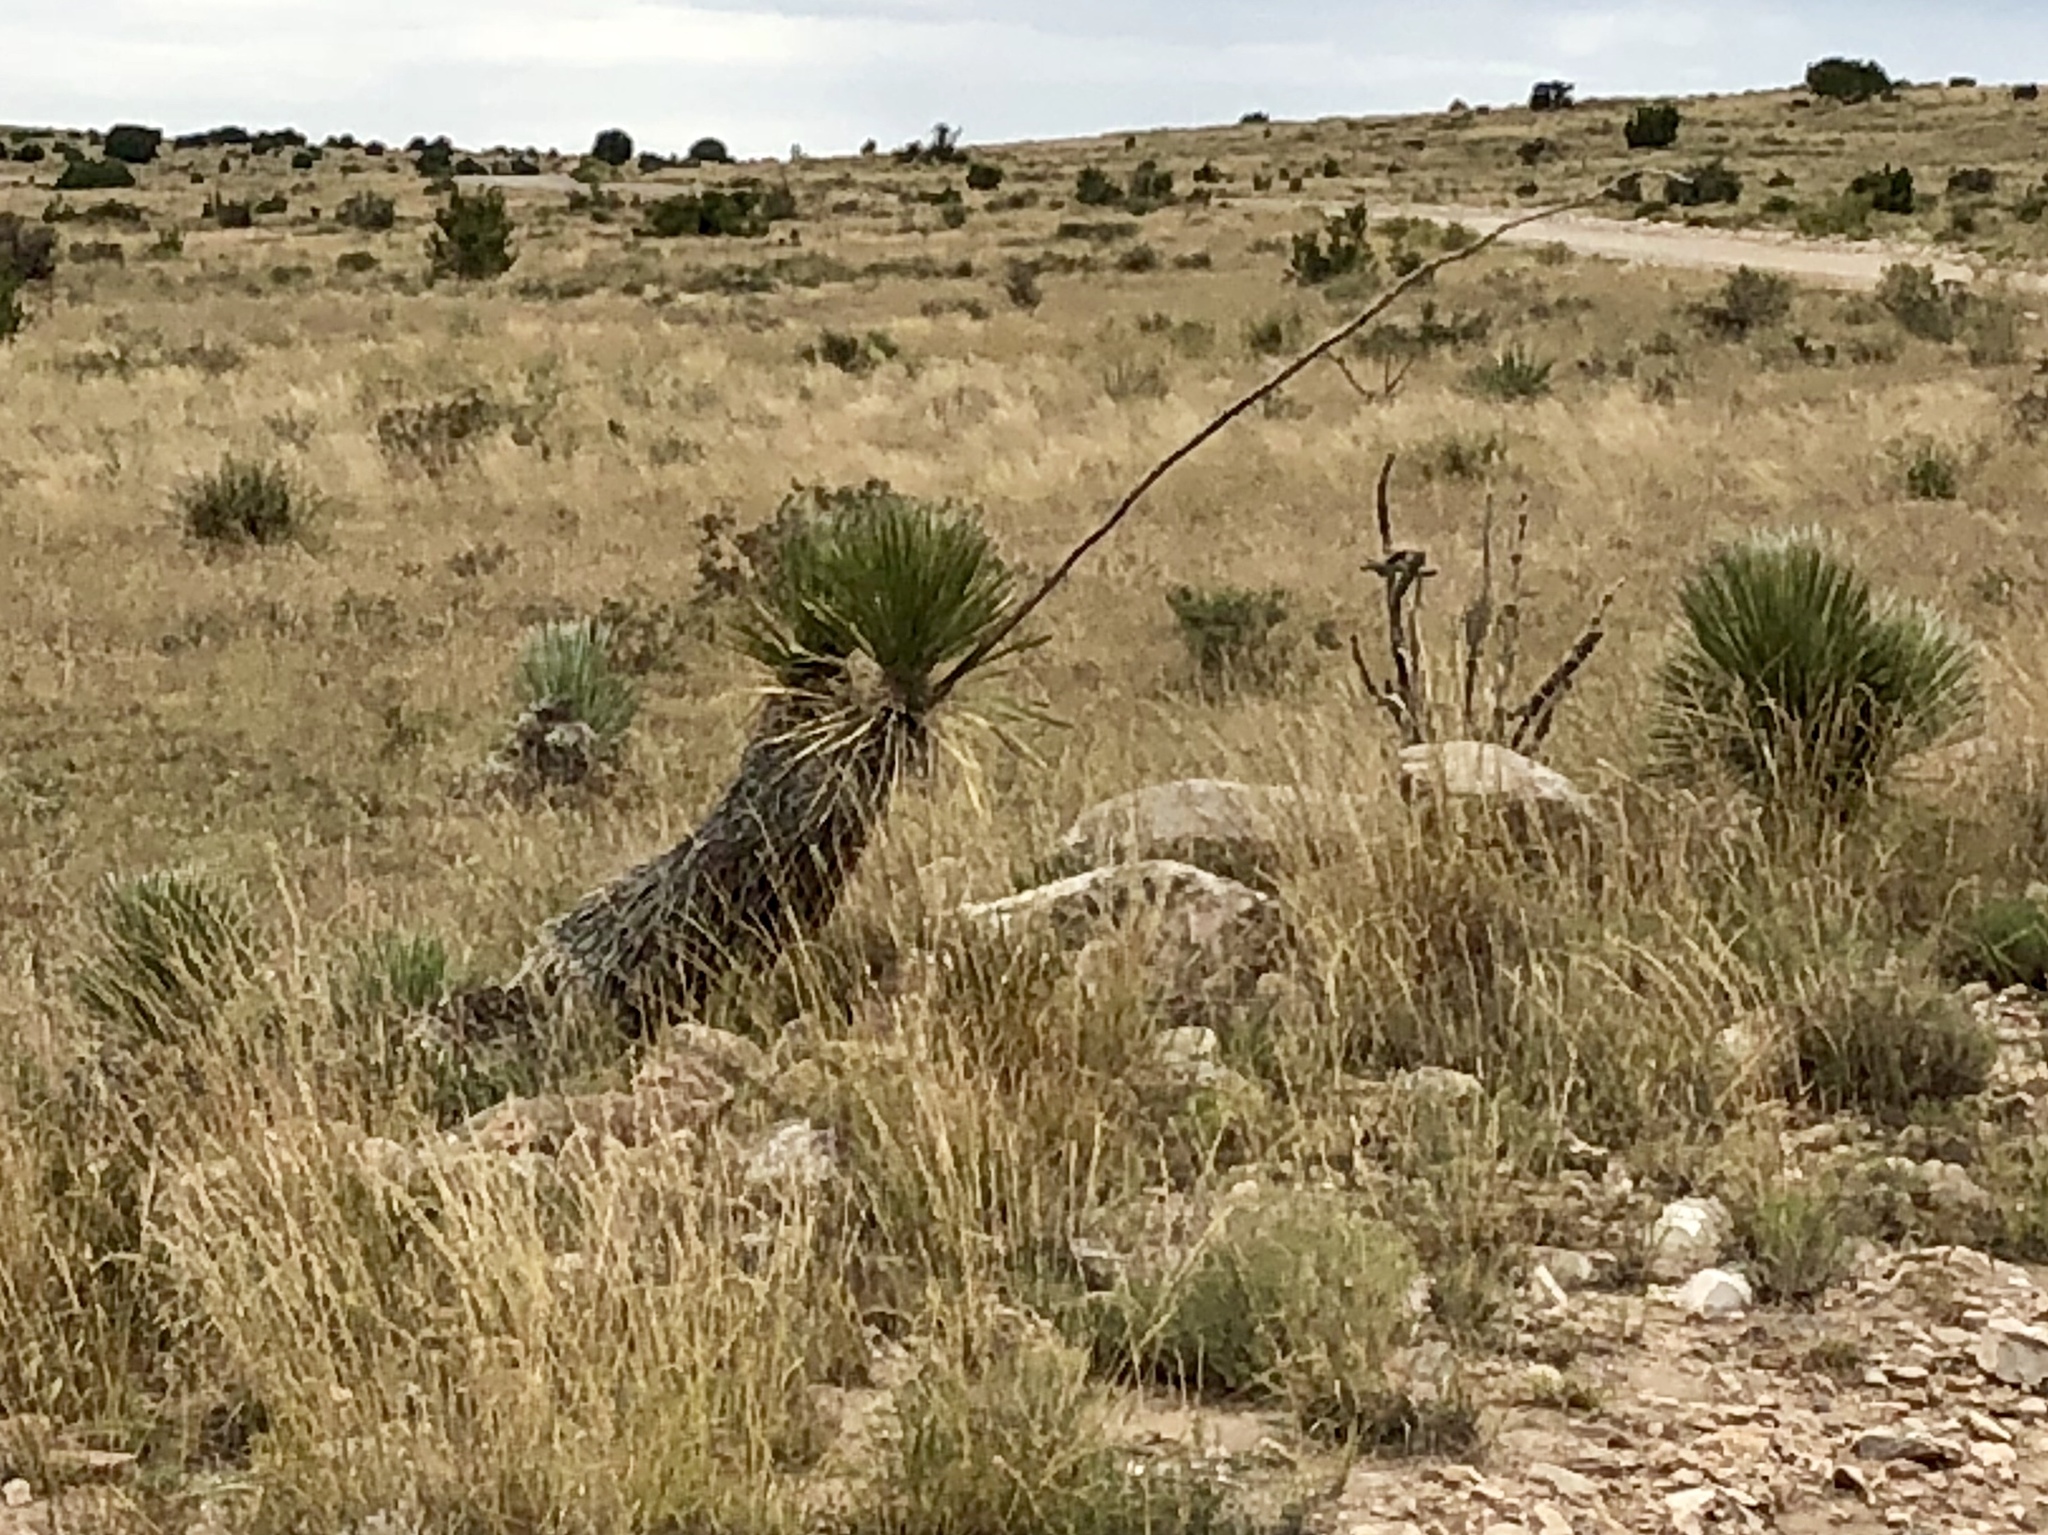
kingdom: Plantae
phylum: Tracheophyta
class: Liliopsida
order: Asparagales
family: Asparagaceae
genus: Yucca
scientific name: Yucca elata
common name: Palmella
